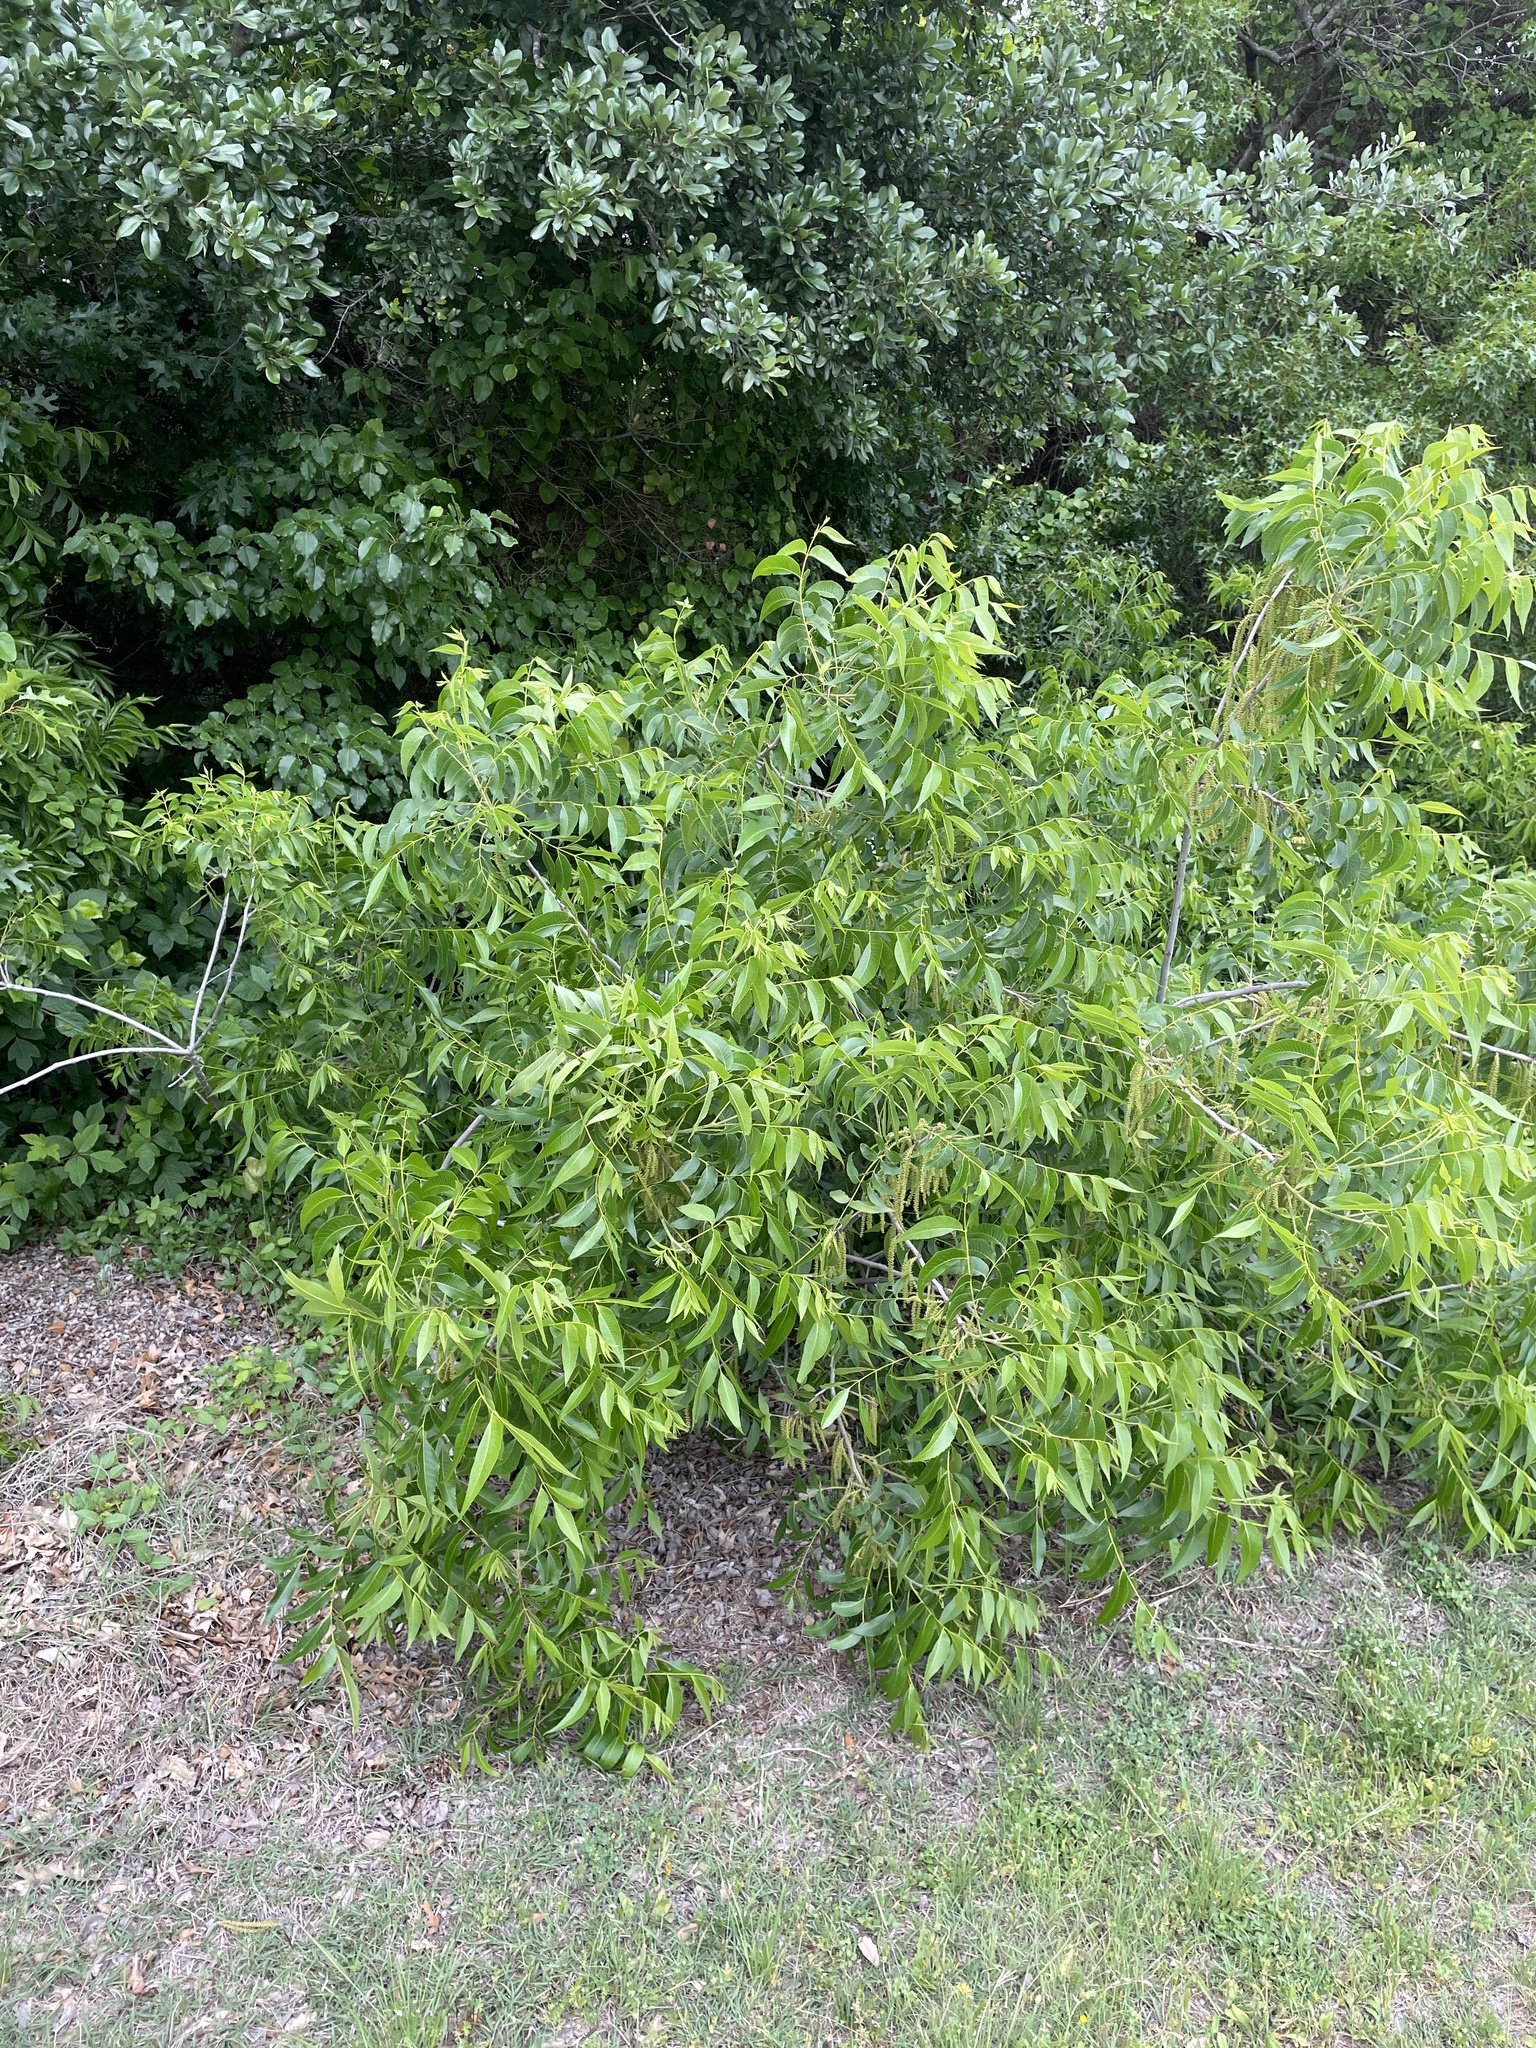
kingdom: Plantae
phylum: Tracheophyta
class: Magnoliopsida
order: Fagales
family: Juglandaceae
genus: Carya
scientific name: Carya illinoinensis
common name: Pecan
